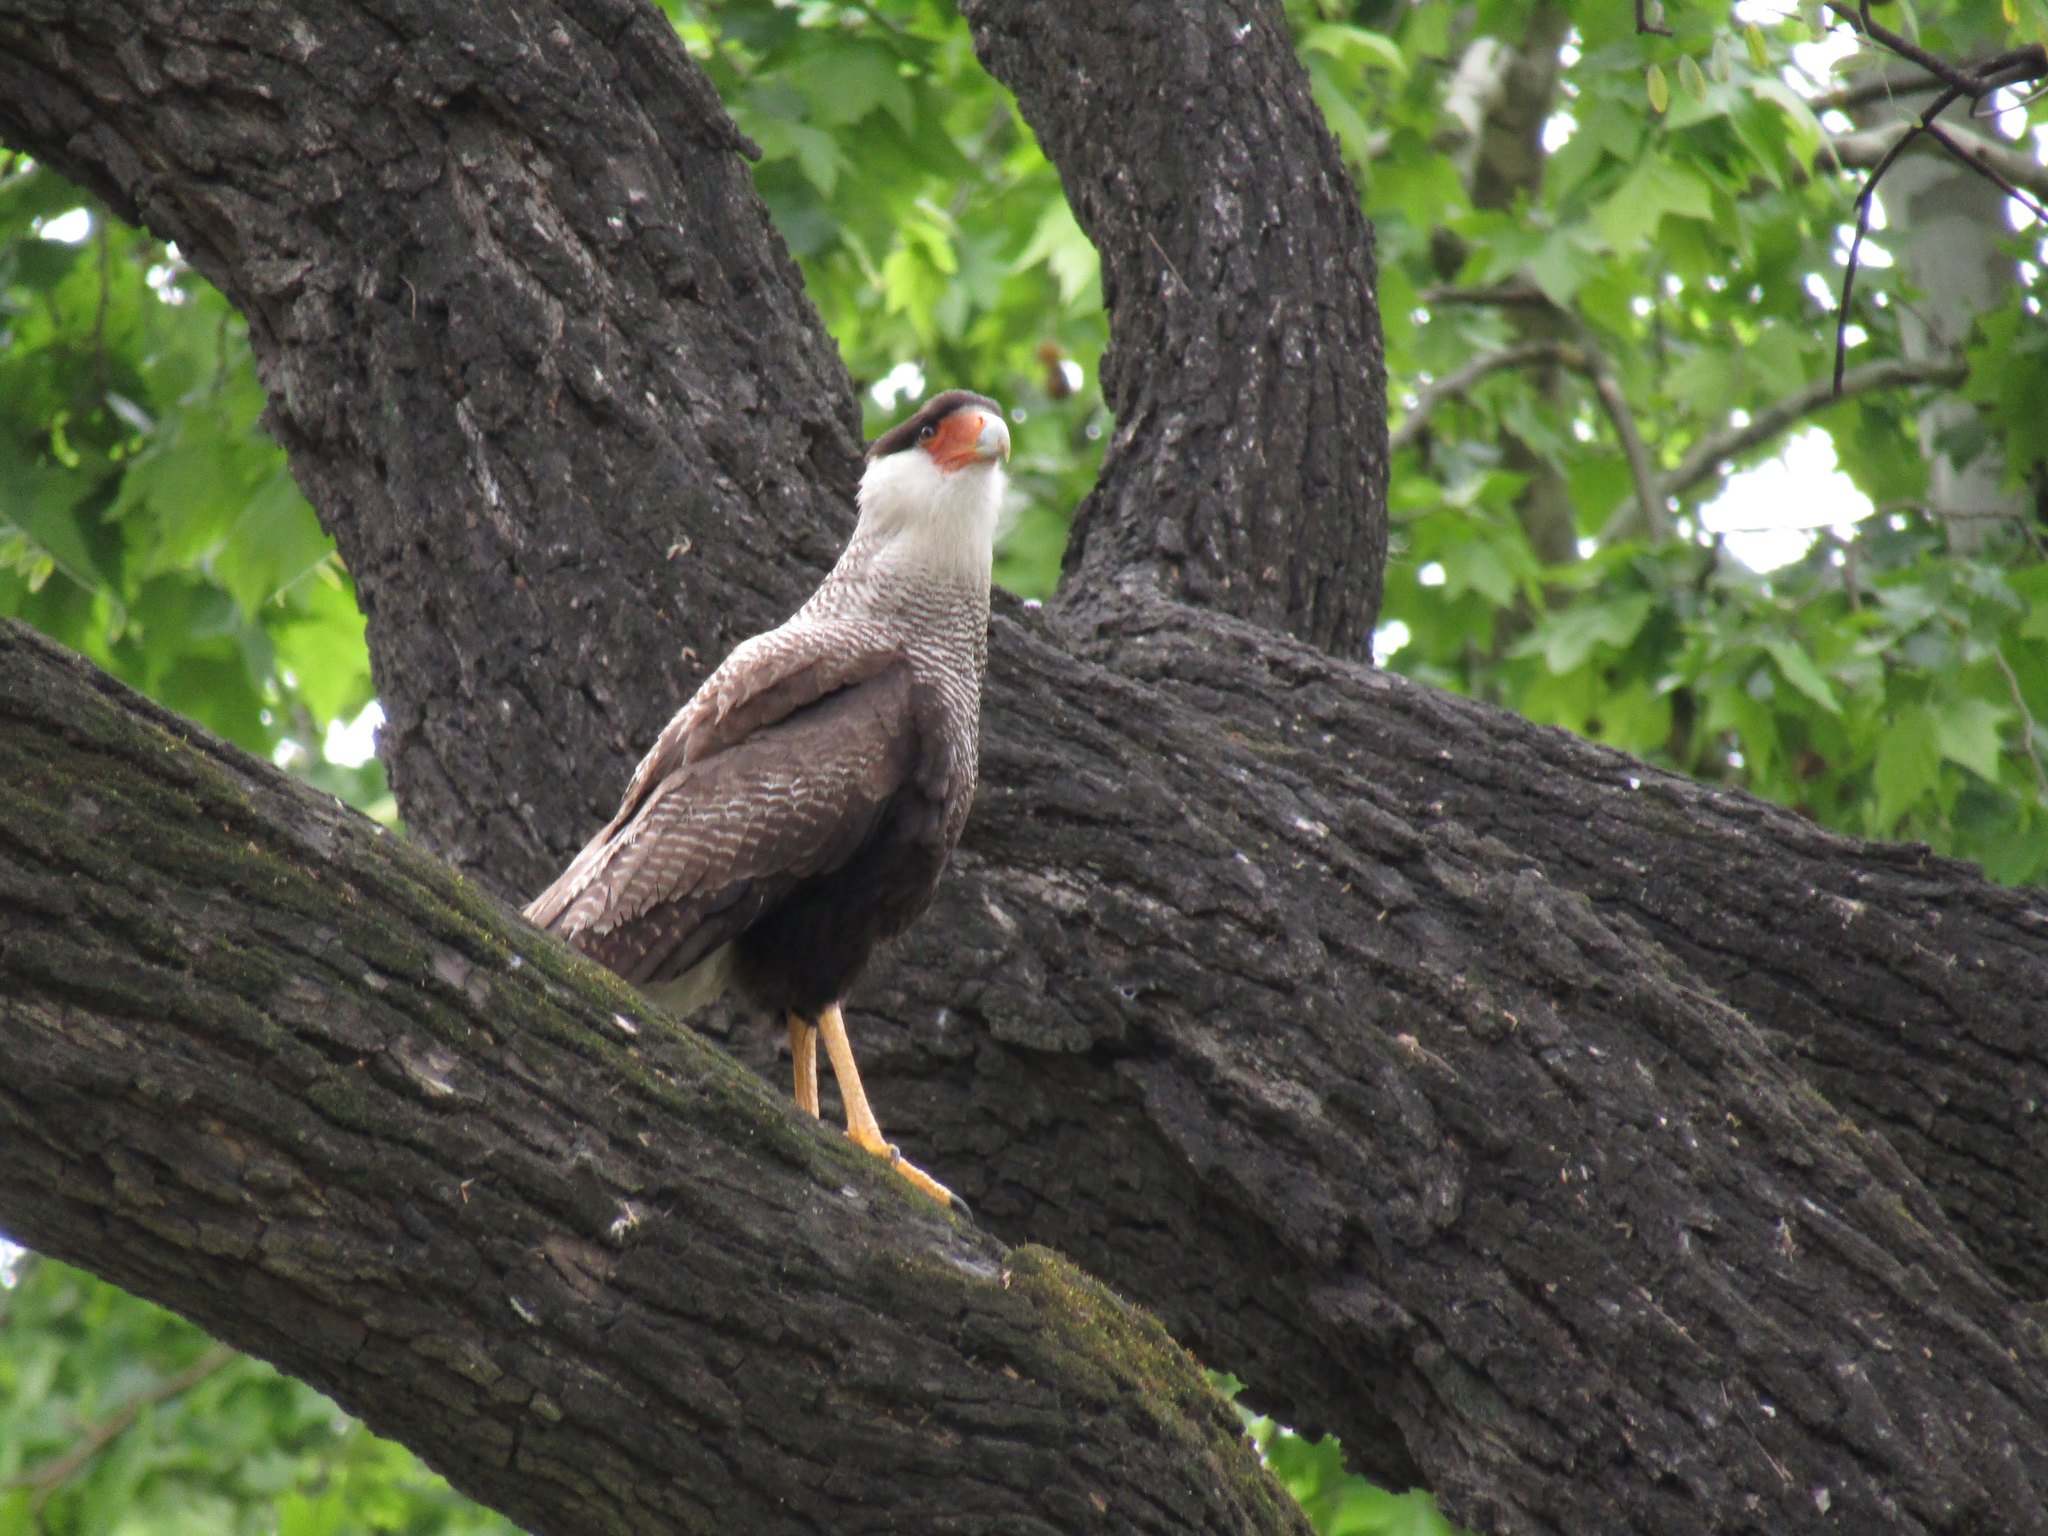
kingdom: Animalia
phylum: Chordata
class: Aves
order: Falconiformes
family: Falconidae
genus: Caracara
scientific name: Caracara plancus
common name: Southern caracara
